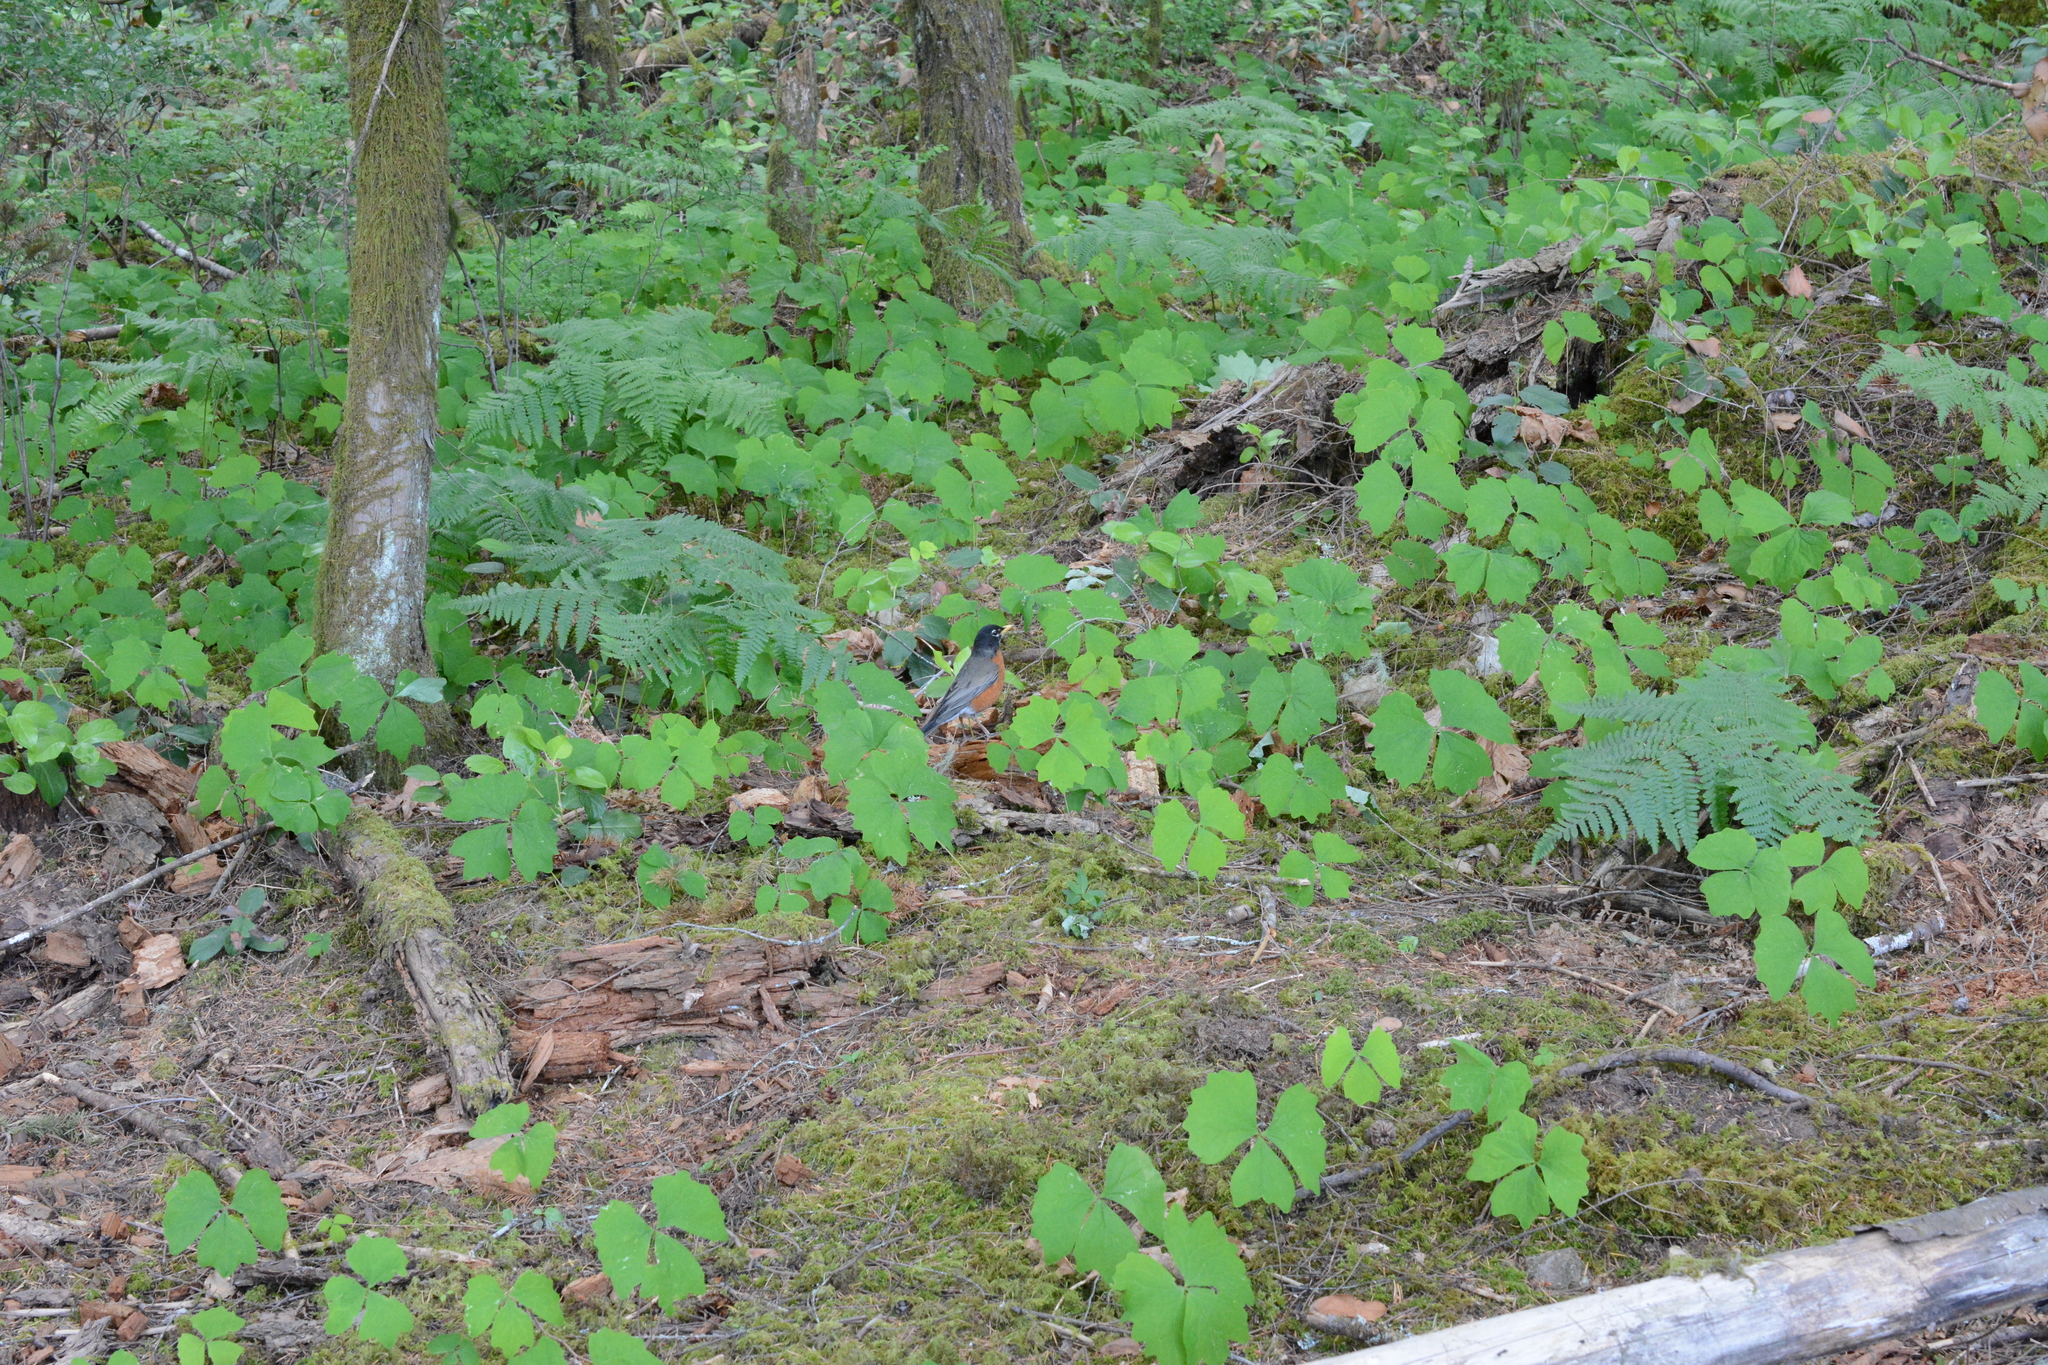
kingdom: Animalia
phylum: Chordata
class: Aves
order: Passeriformes
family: Turdidae
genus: Turdus
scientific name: Turdus migratorius
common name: American robin
